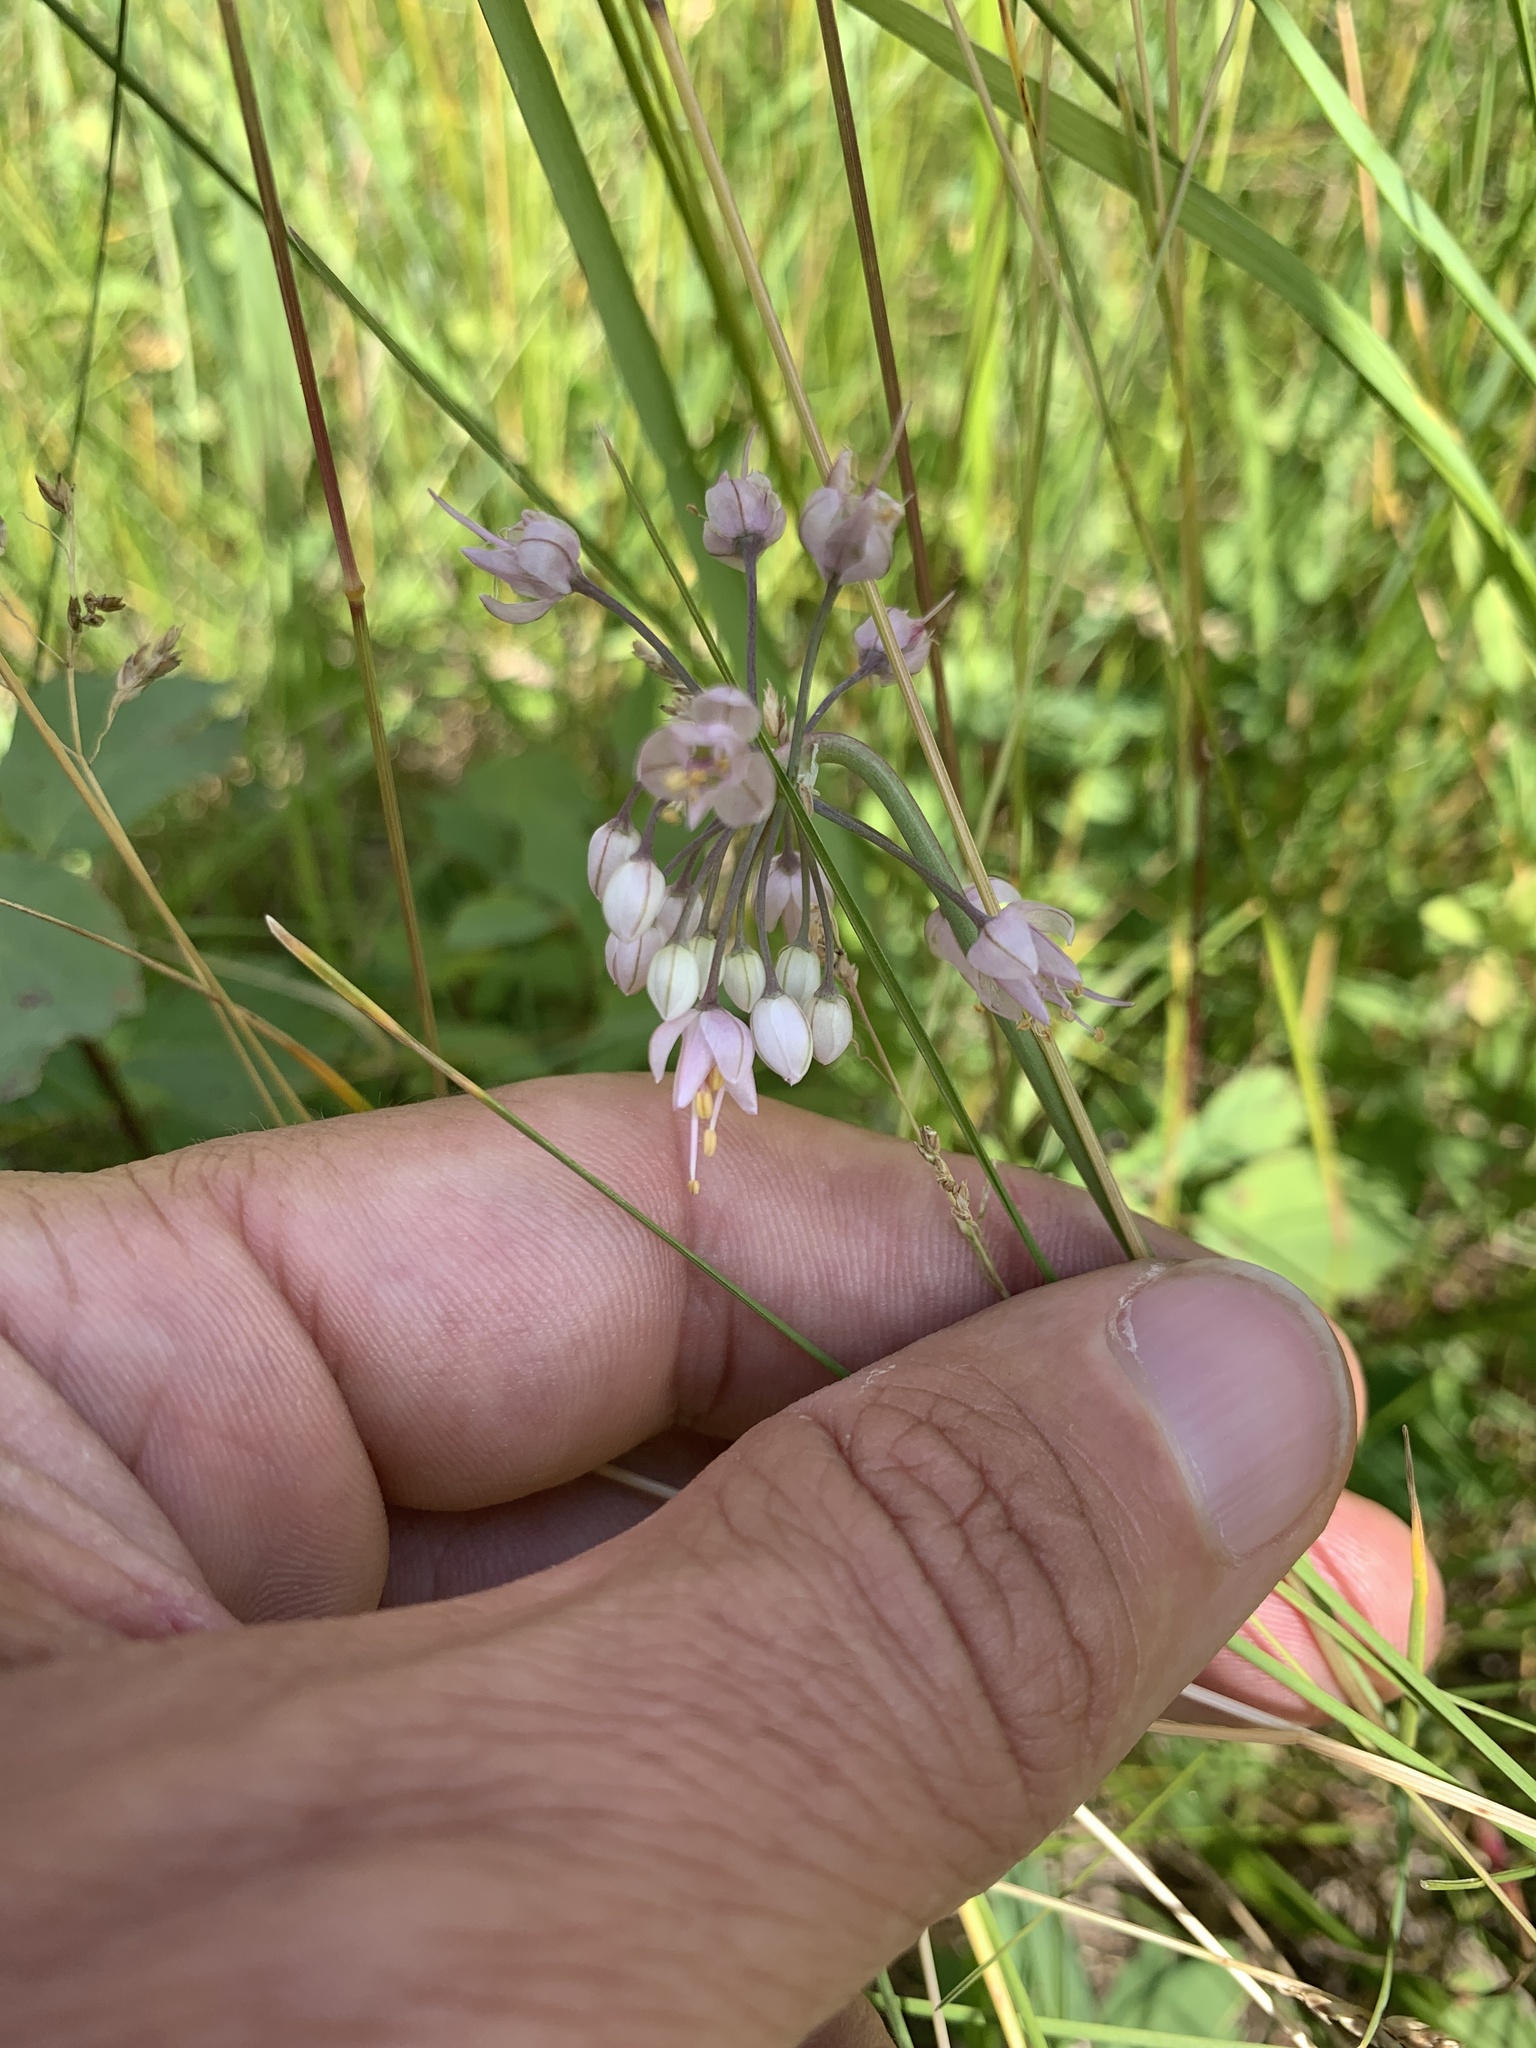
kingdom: Plantae
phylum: Tracheophyta
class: Liliopsida
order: Asparagales
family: Amaryllidaceae
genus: Allium
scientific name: Allium cernuum
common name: Nodding onion
